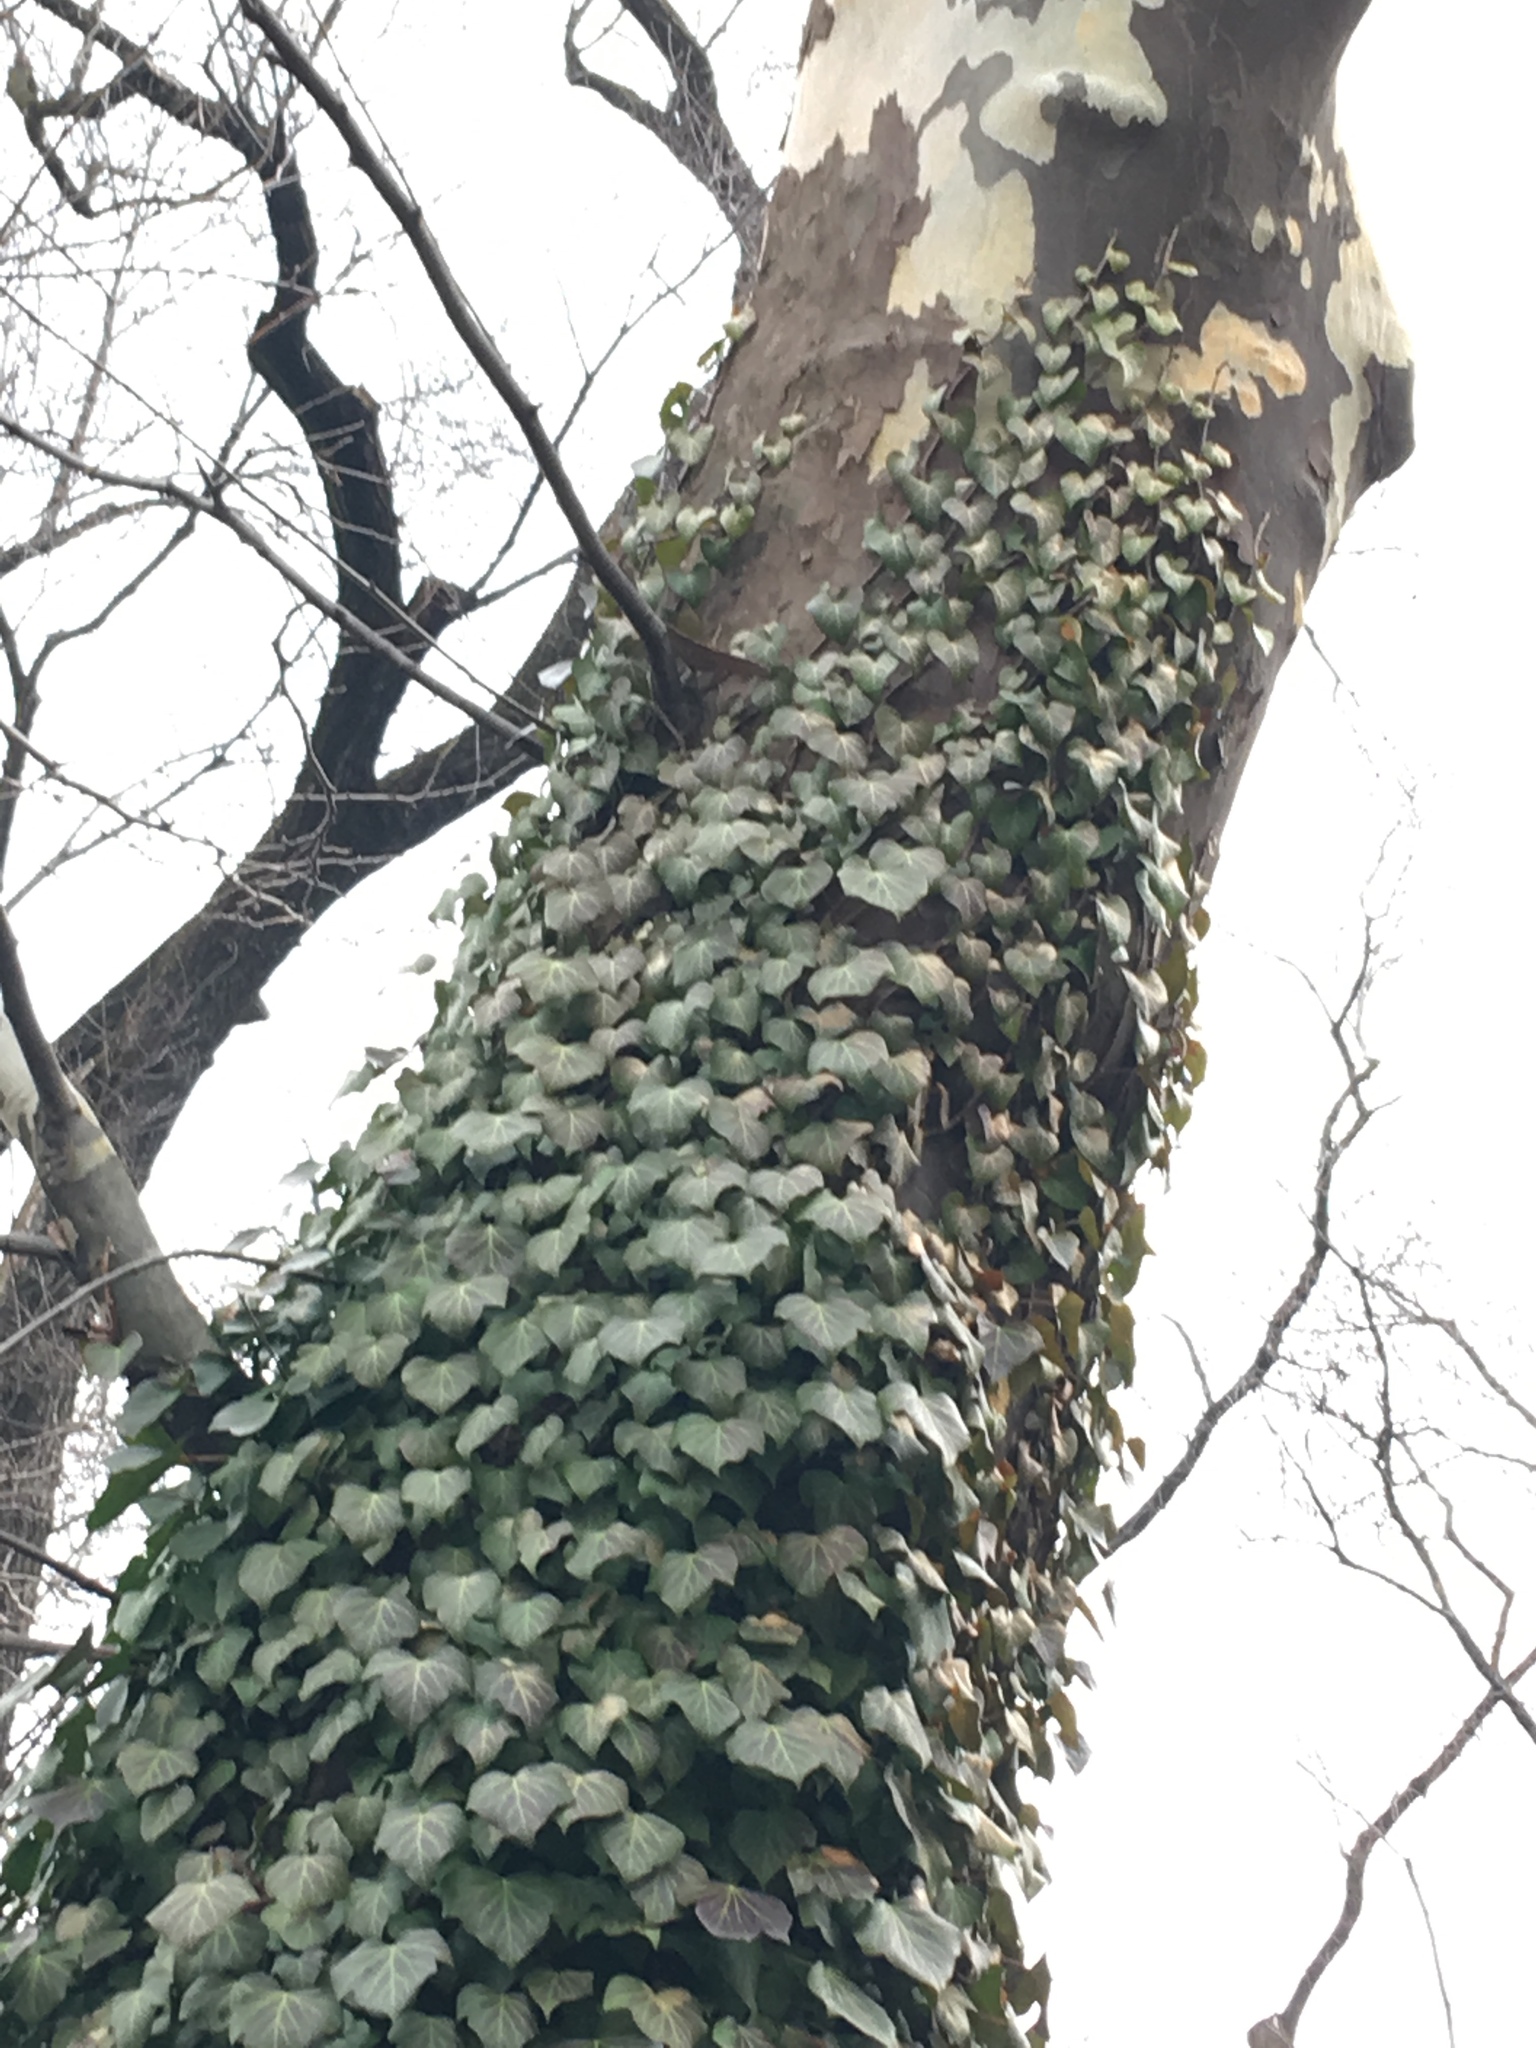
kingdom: Plantae
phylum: Tracheophyta
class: Magnoliopsida
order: Apiales
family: Araliaceae
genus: Hedera
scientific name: Hedera helix
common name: Ivy
